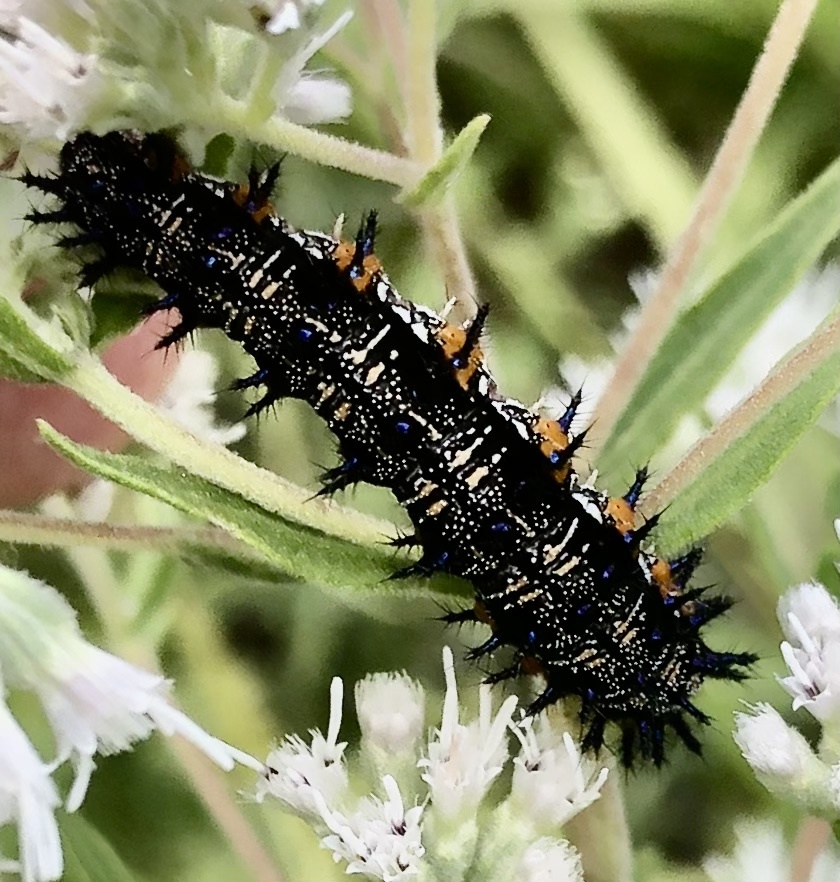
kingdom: Animalia
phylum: Arthropoda
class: Insecta
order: Lepidoptera
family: Nymphalidae
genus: Junonia
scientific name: Junonia coenia
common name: Common buckeye
